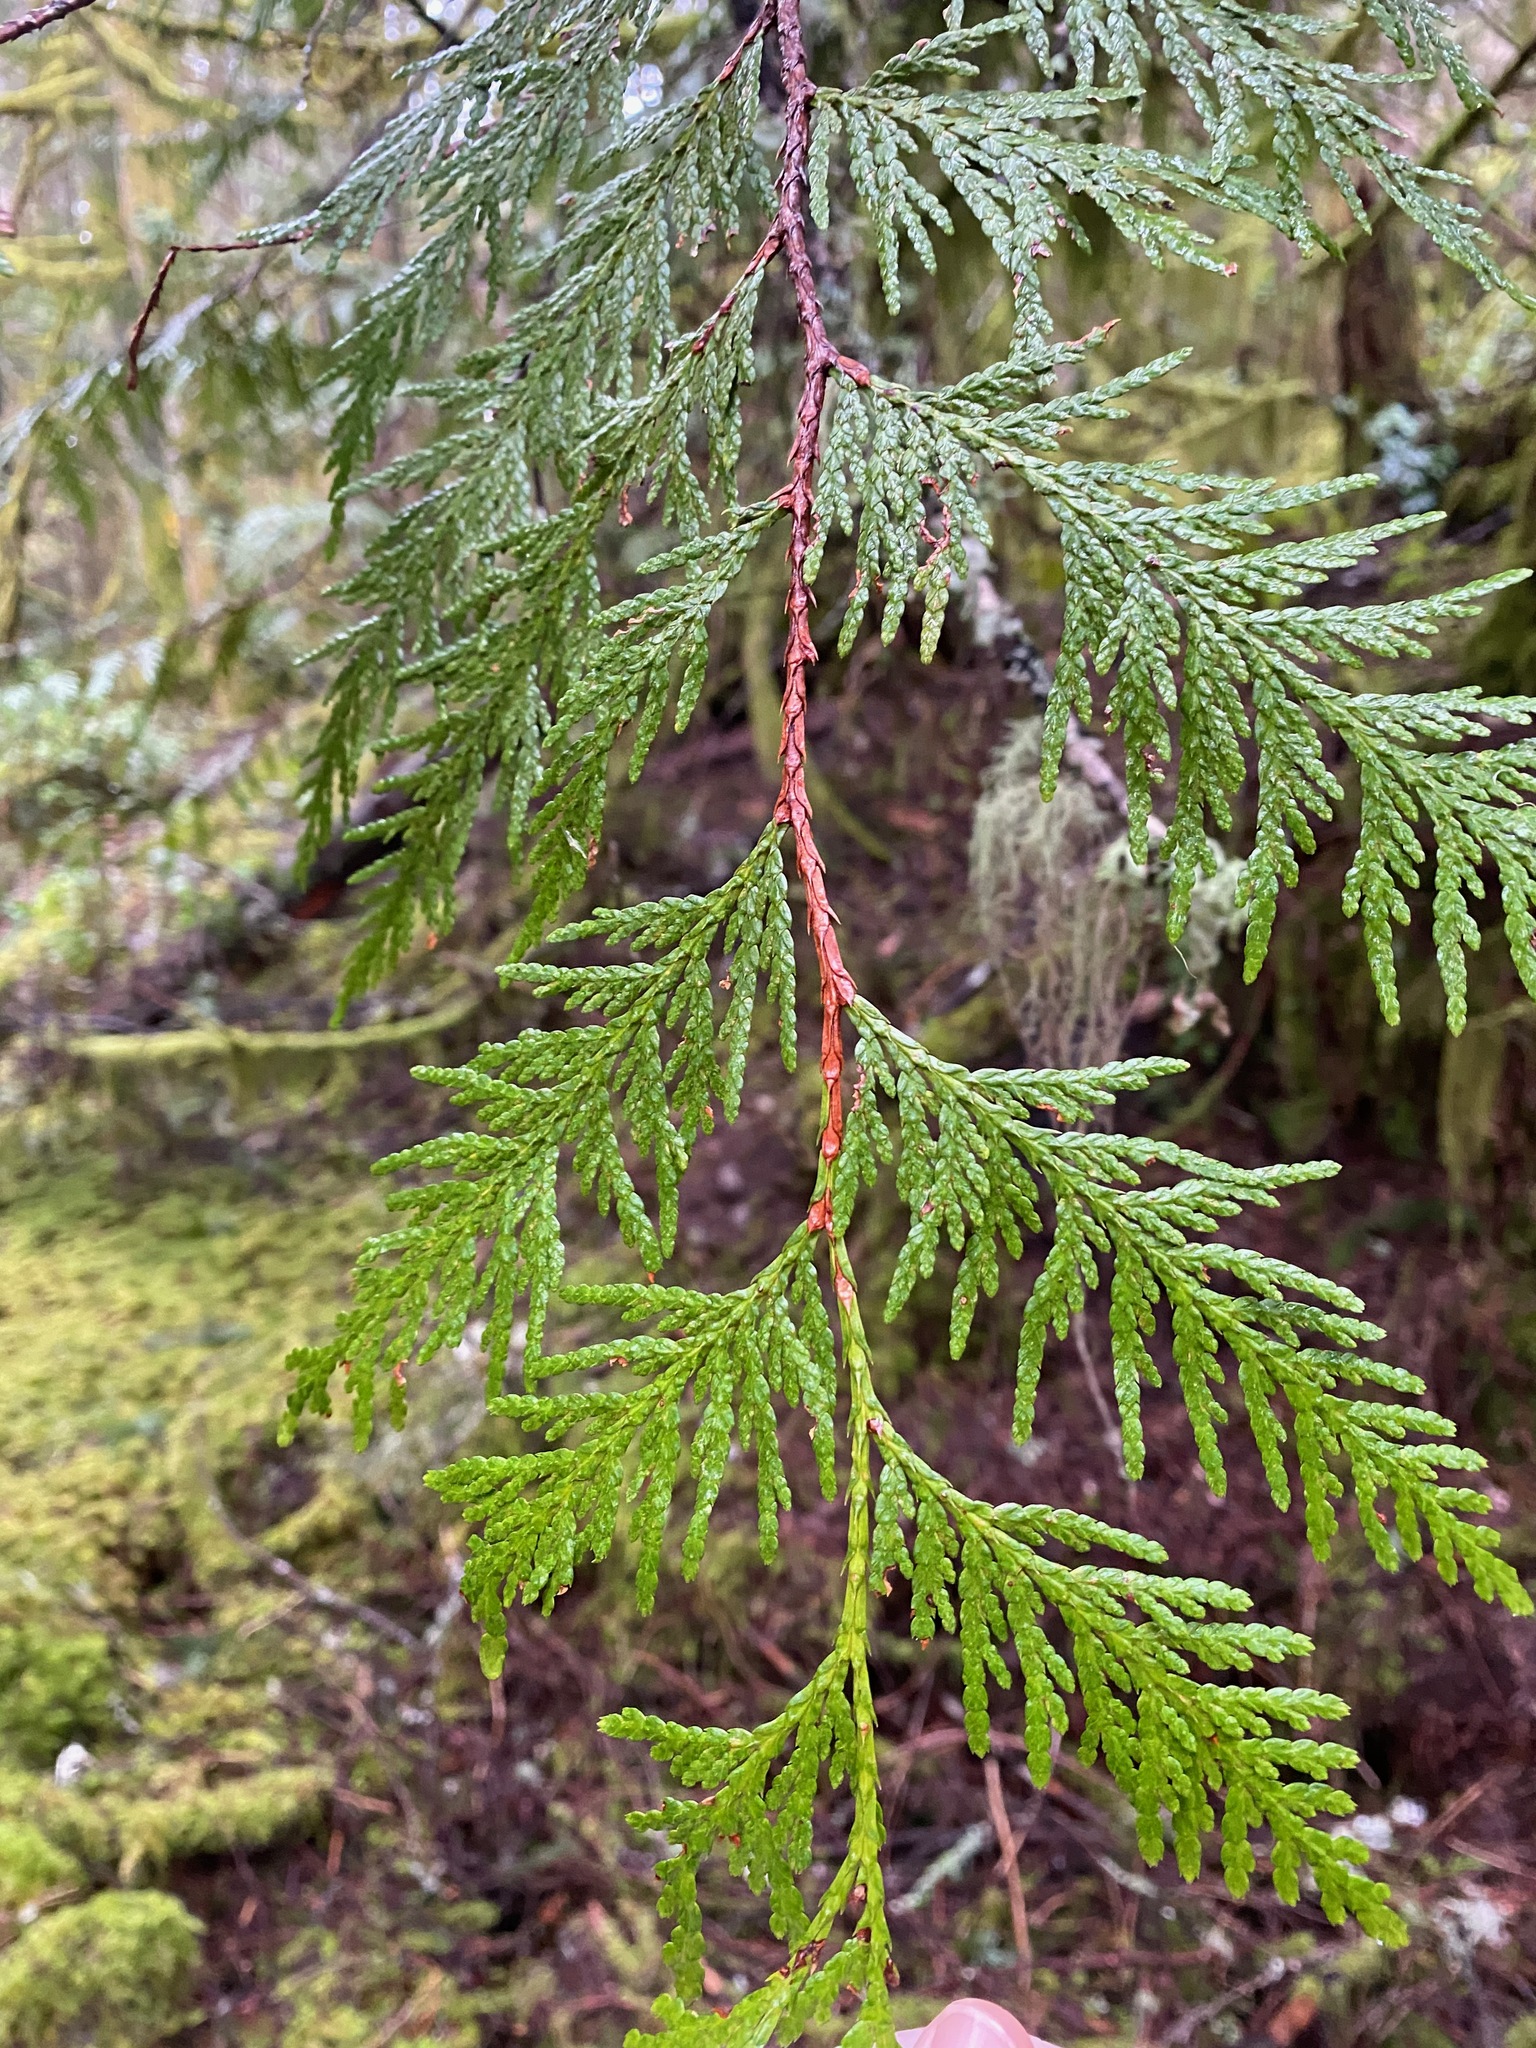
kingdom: Plantae
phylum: Tracheophyta
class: Pinopsida
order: Pinales
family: Cupressaceae
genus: Thuja
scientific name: Thuja plicata
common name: Western red-cedar
